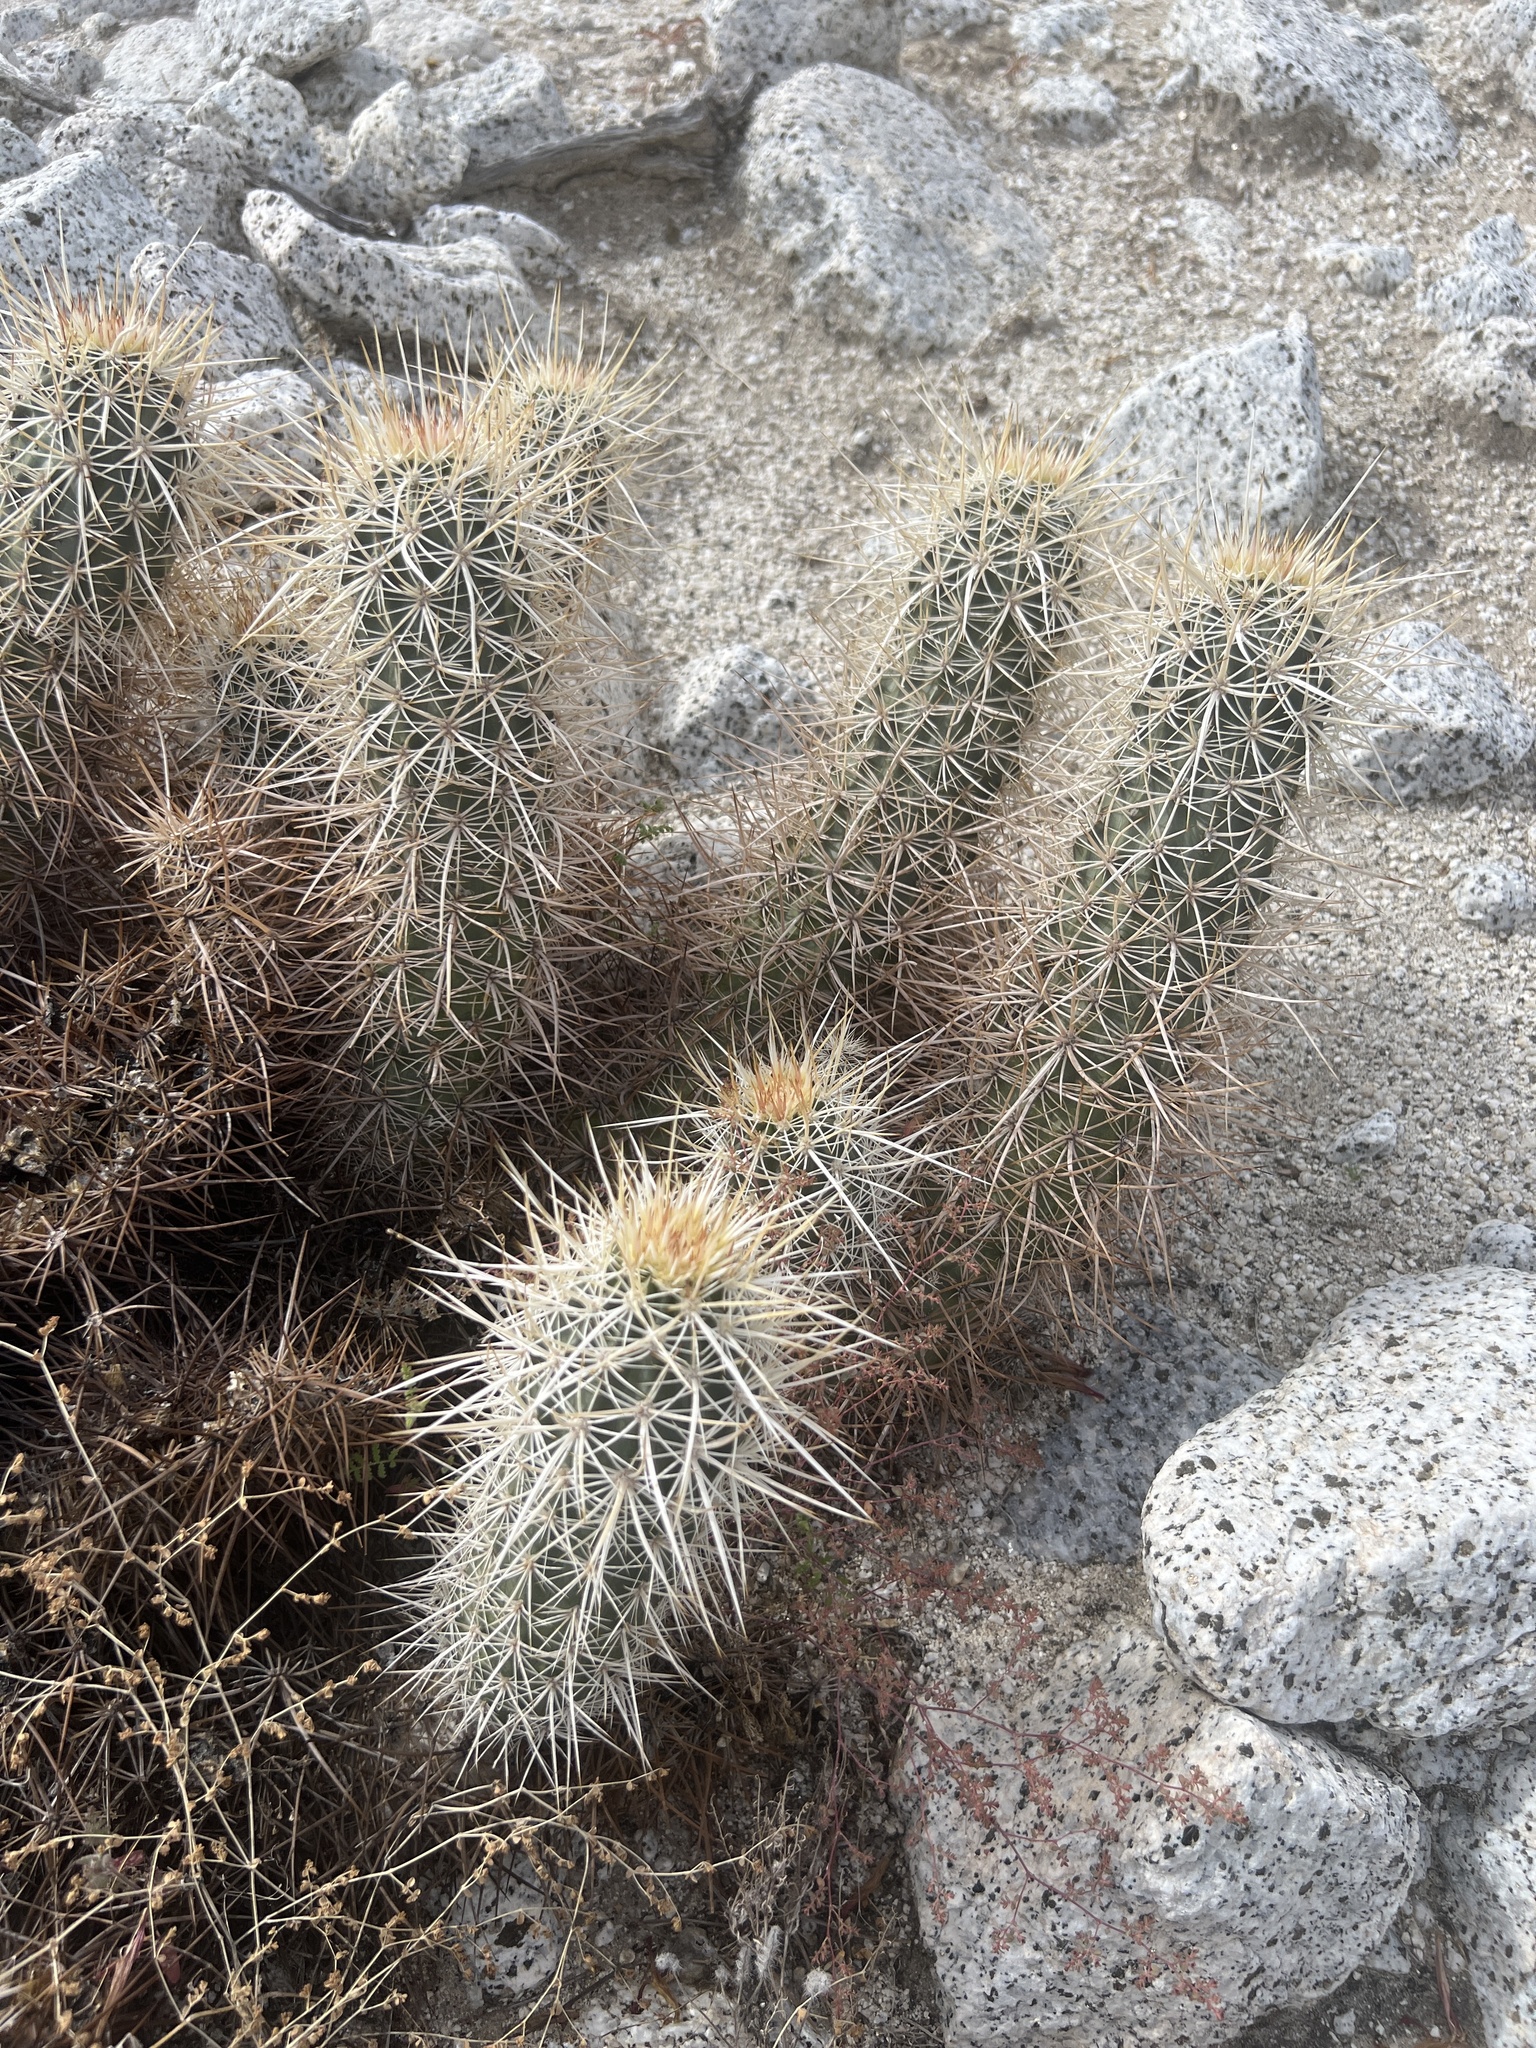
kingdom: Plantae
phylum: Tracheophyta
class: Magnoliopsida
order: Caryophyllales
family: Cactaceae
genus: Echinocereus
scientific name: Echinocereus engelmannii
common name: Engelmann's hedgehog cactus
